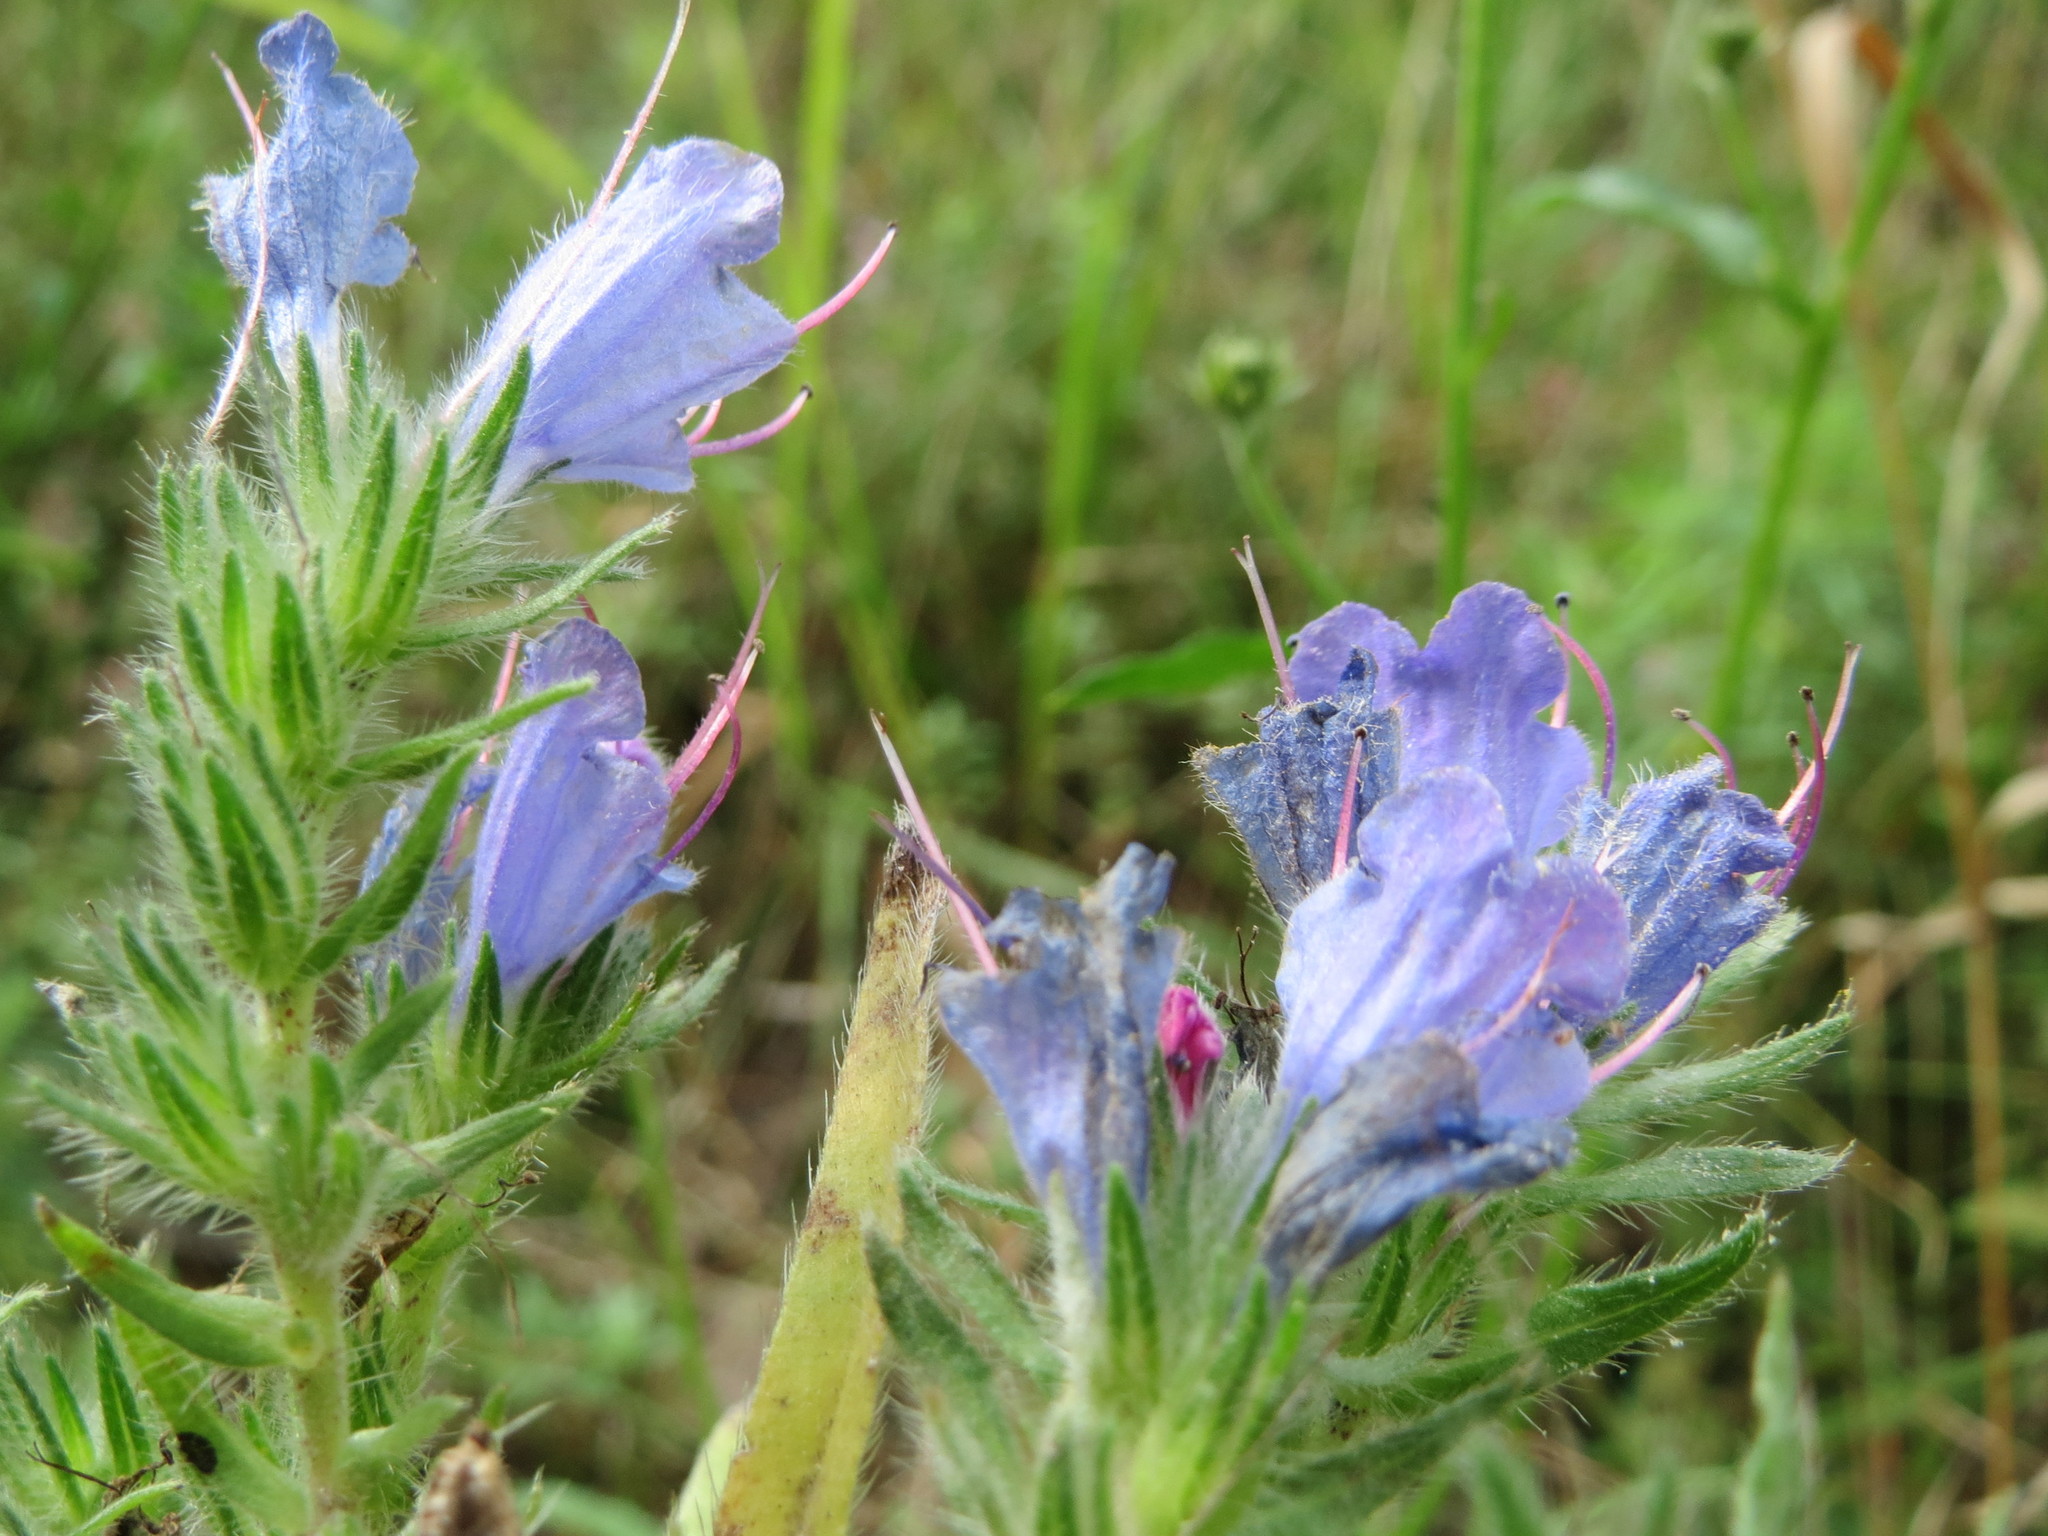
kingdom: Plantae
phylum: Tracheophyta
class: Magnoliopsida
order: Boraginales
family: Boraginaceae
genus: Echium
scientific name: Echium vulgare
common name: Common viper's bugloss
